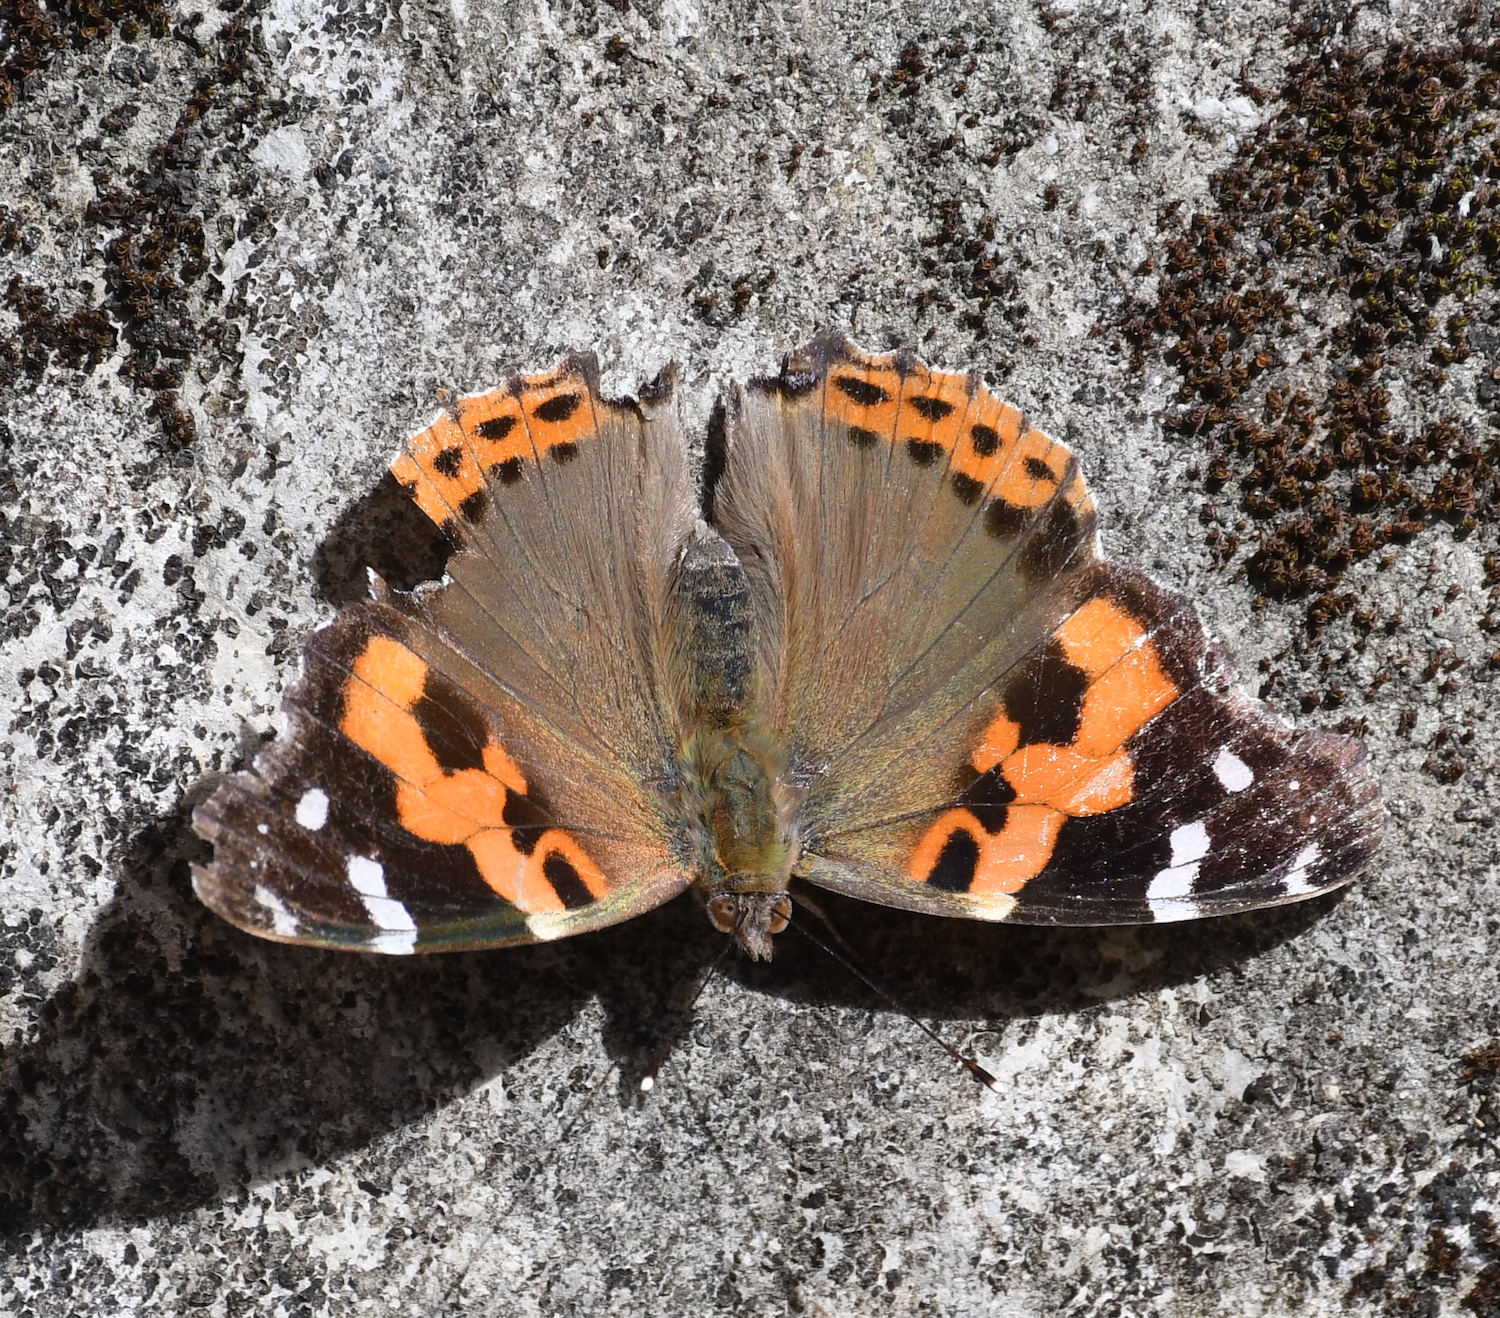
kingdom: Animalia
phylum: Arthropoda
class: Insecta
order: Lepidoptera
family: Nymphalidae
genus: Vanessa
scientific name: Vanessa indica
